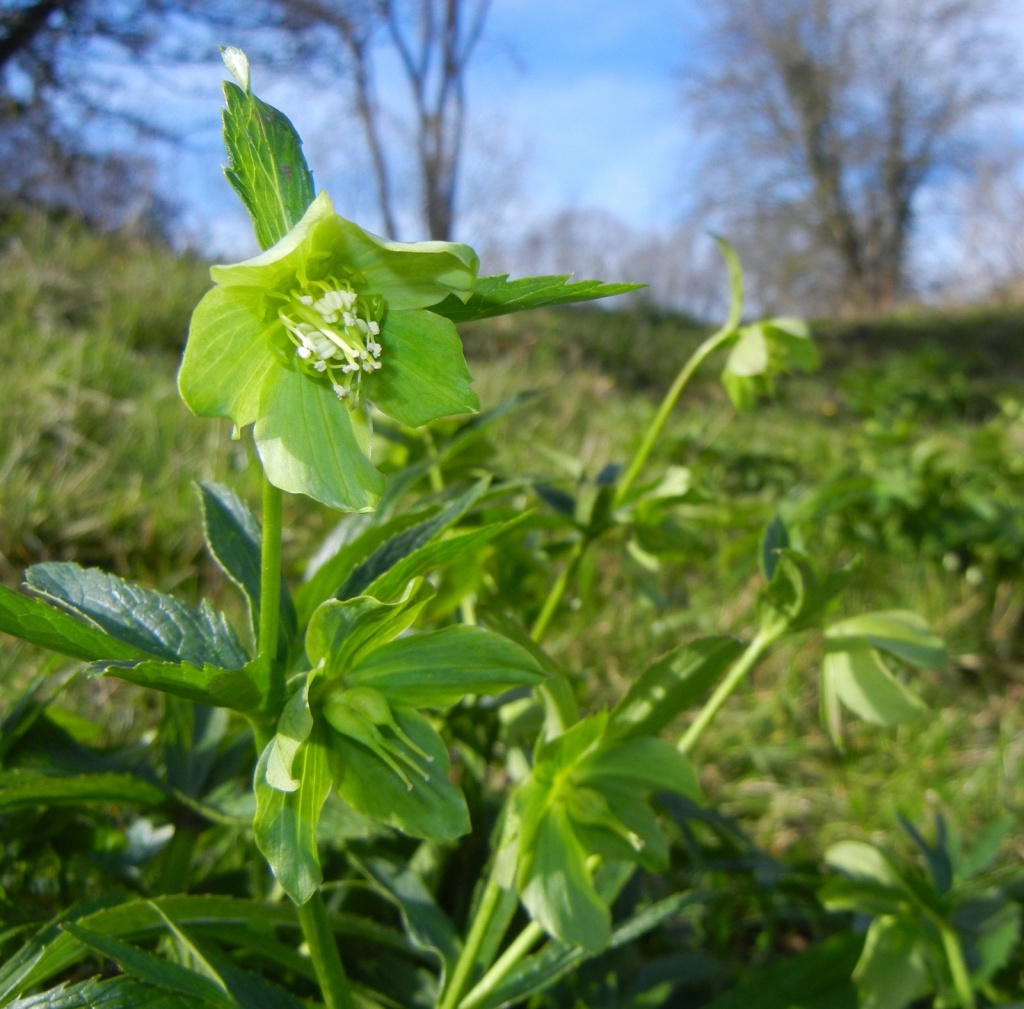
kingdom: Plantae
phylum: Tracheophyta
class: Magnoliopsida
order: Ranunculales
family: Ranunculaceae
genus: Helleborus
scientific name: Helleborus viridis
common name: Green hellebore
